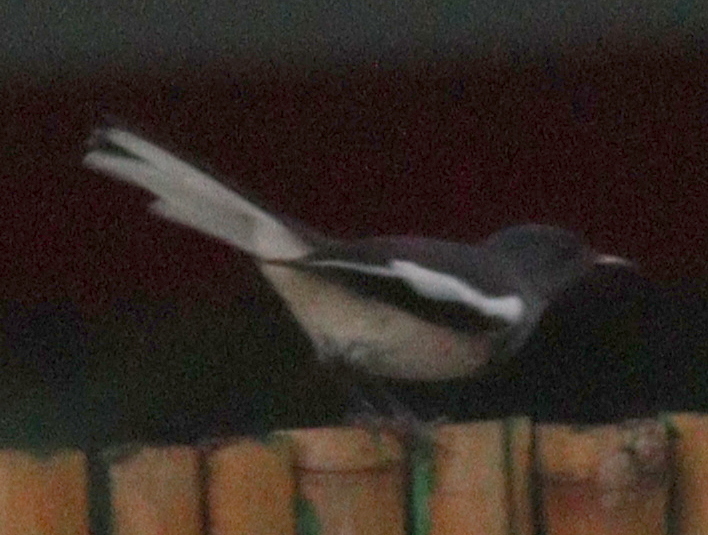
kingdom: Animalia
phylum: Chordata
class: Aves
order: Passeriformes
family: Muscicapidae
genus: Copsychus
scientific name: Copsychus saularis
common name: Oriental magpie-robin
